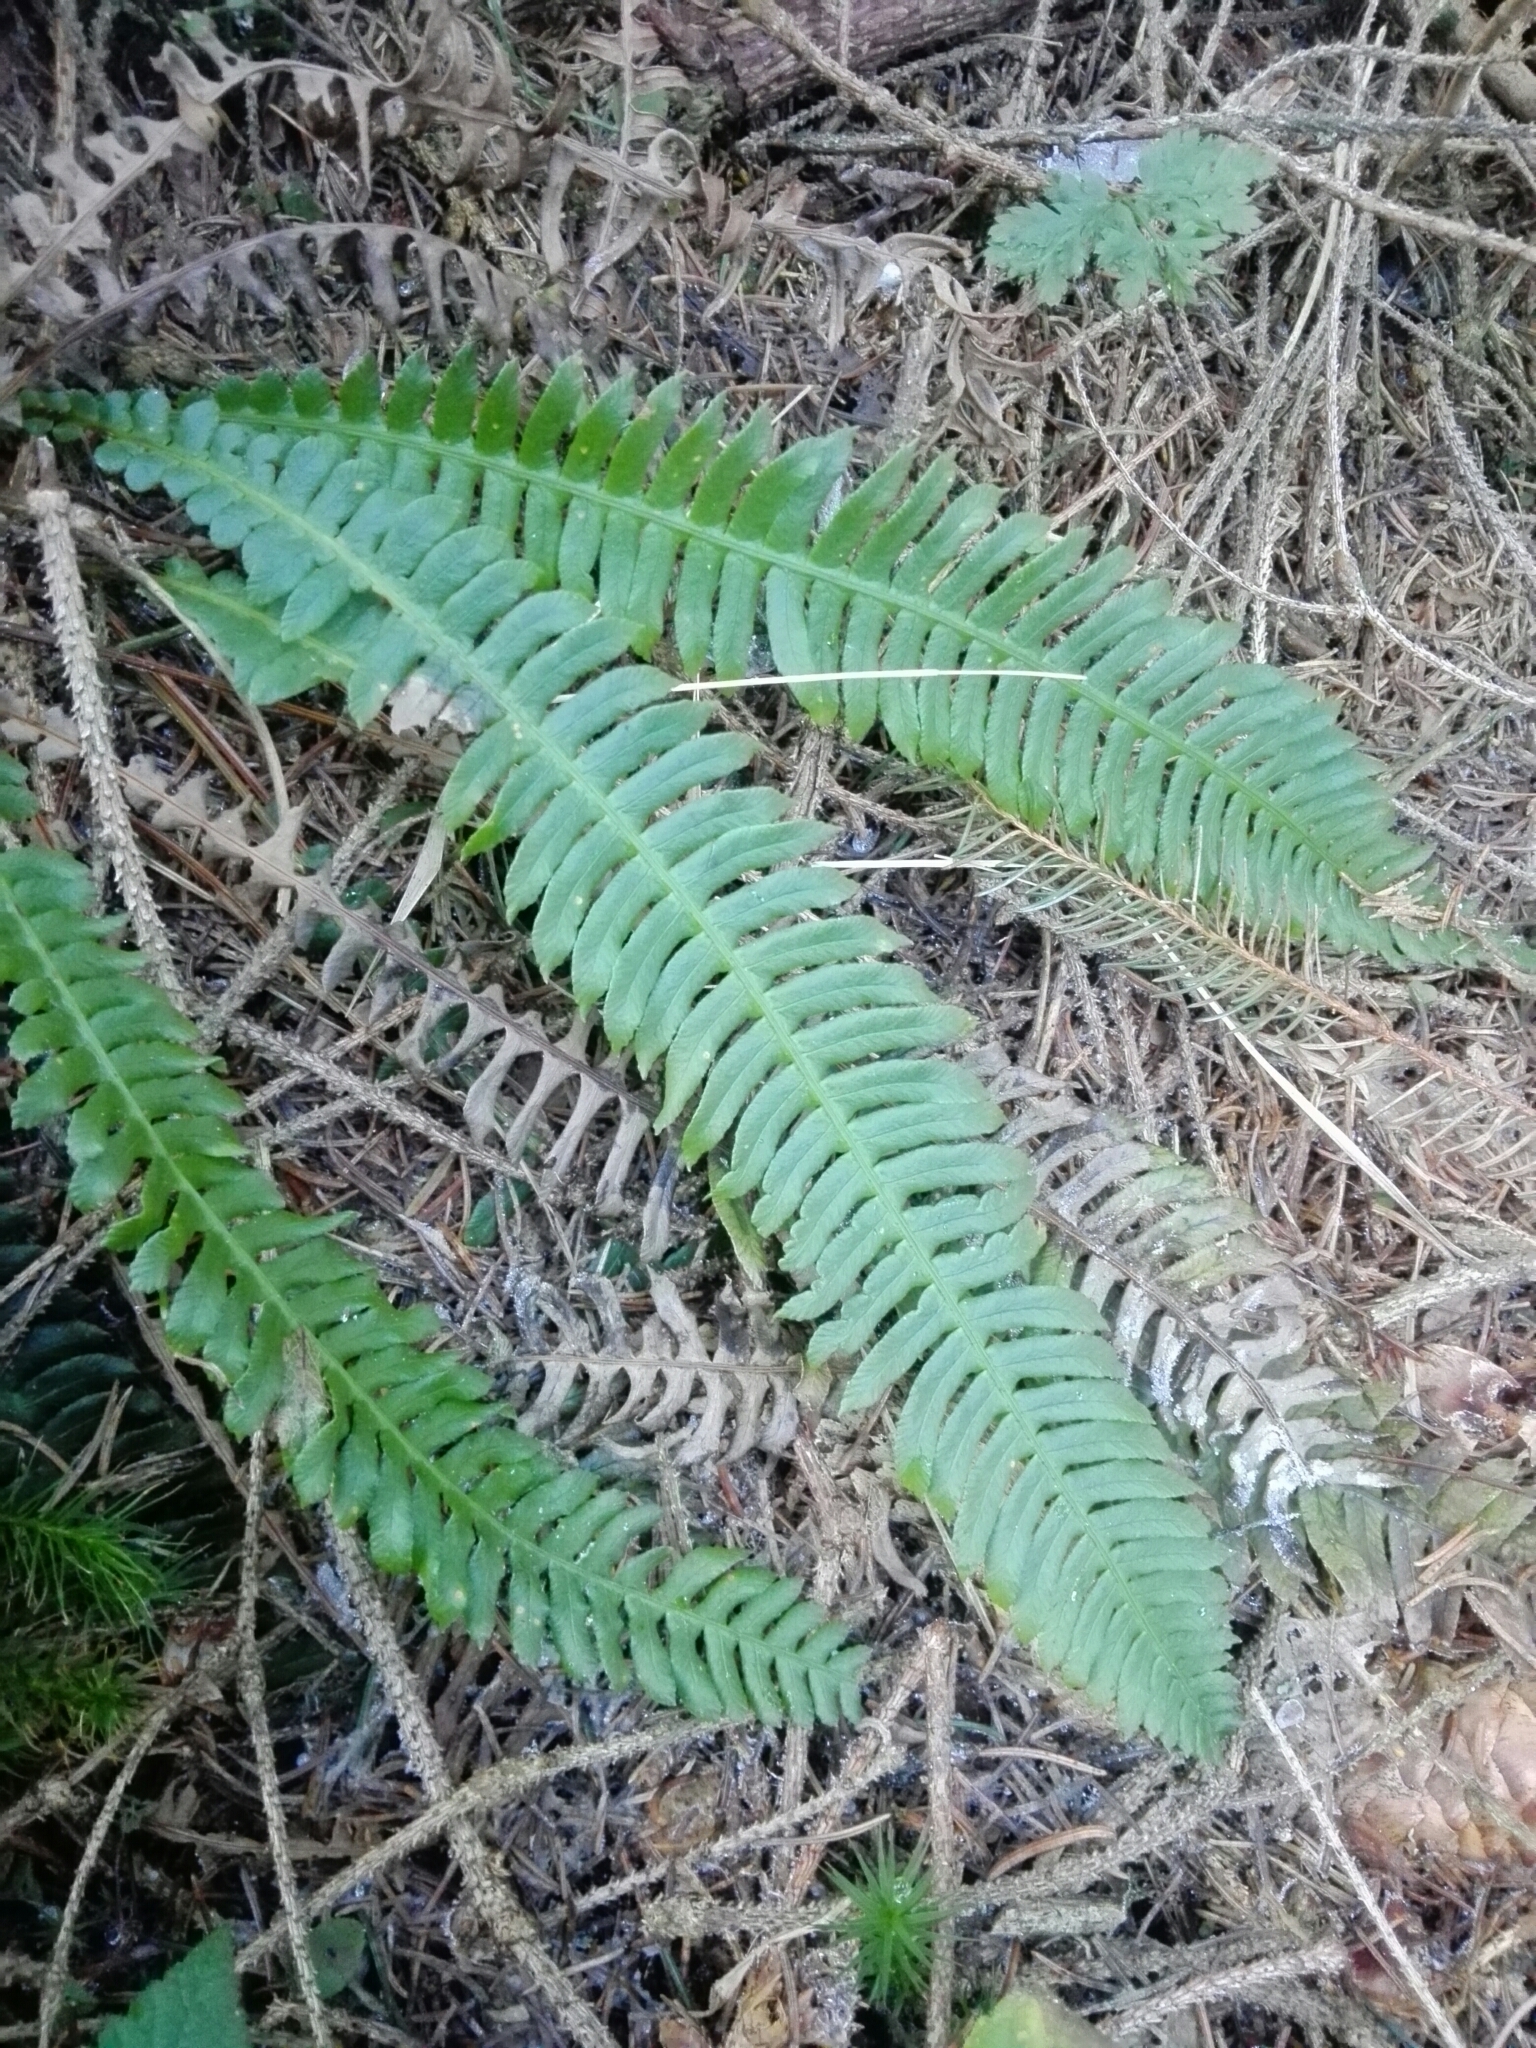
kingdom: Plantae
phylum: Tracheophyta
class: Polypodiopsida
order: Polypodiales
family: Blechnaceae
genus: Struthiopteris
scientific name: Struthiopteris spicant
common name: Deer fern
